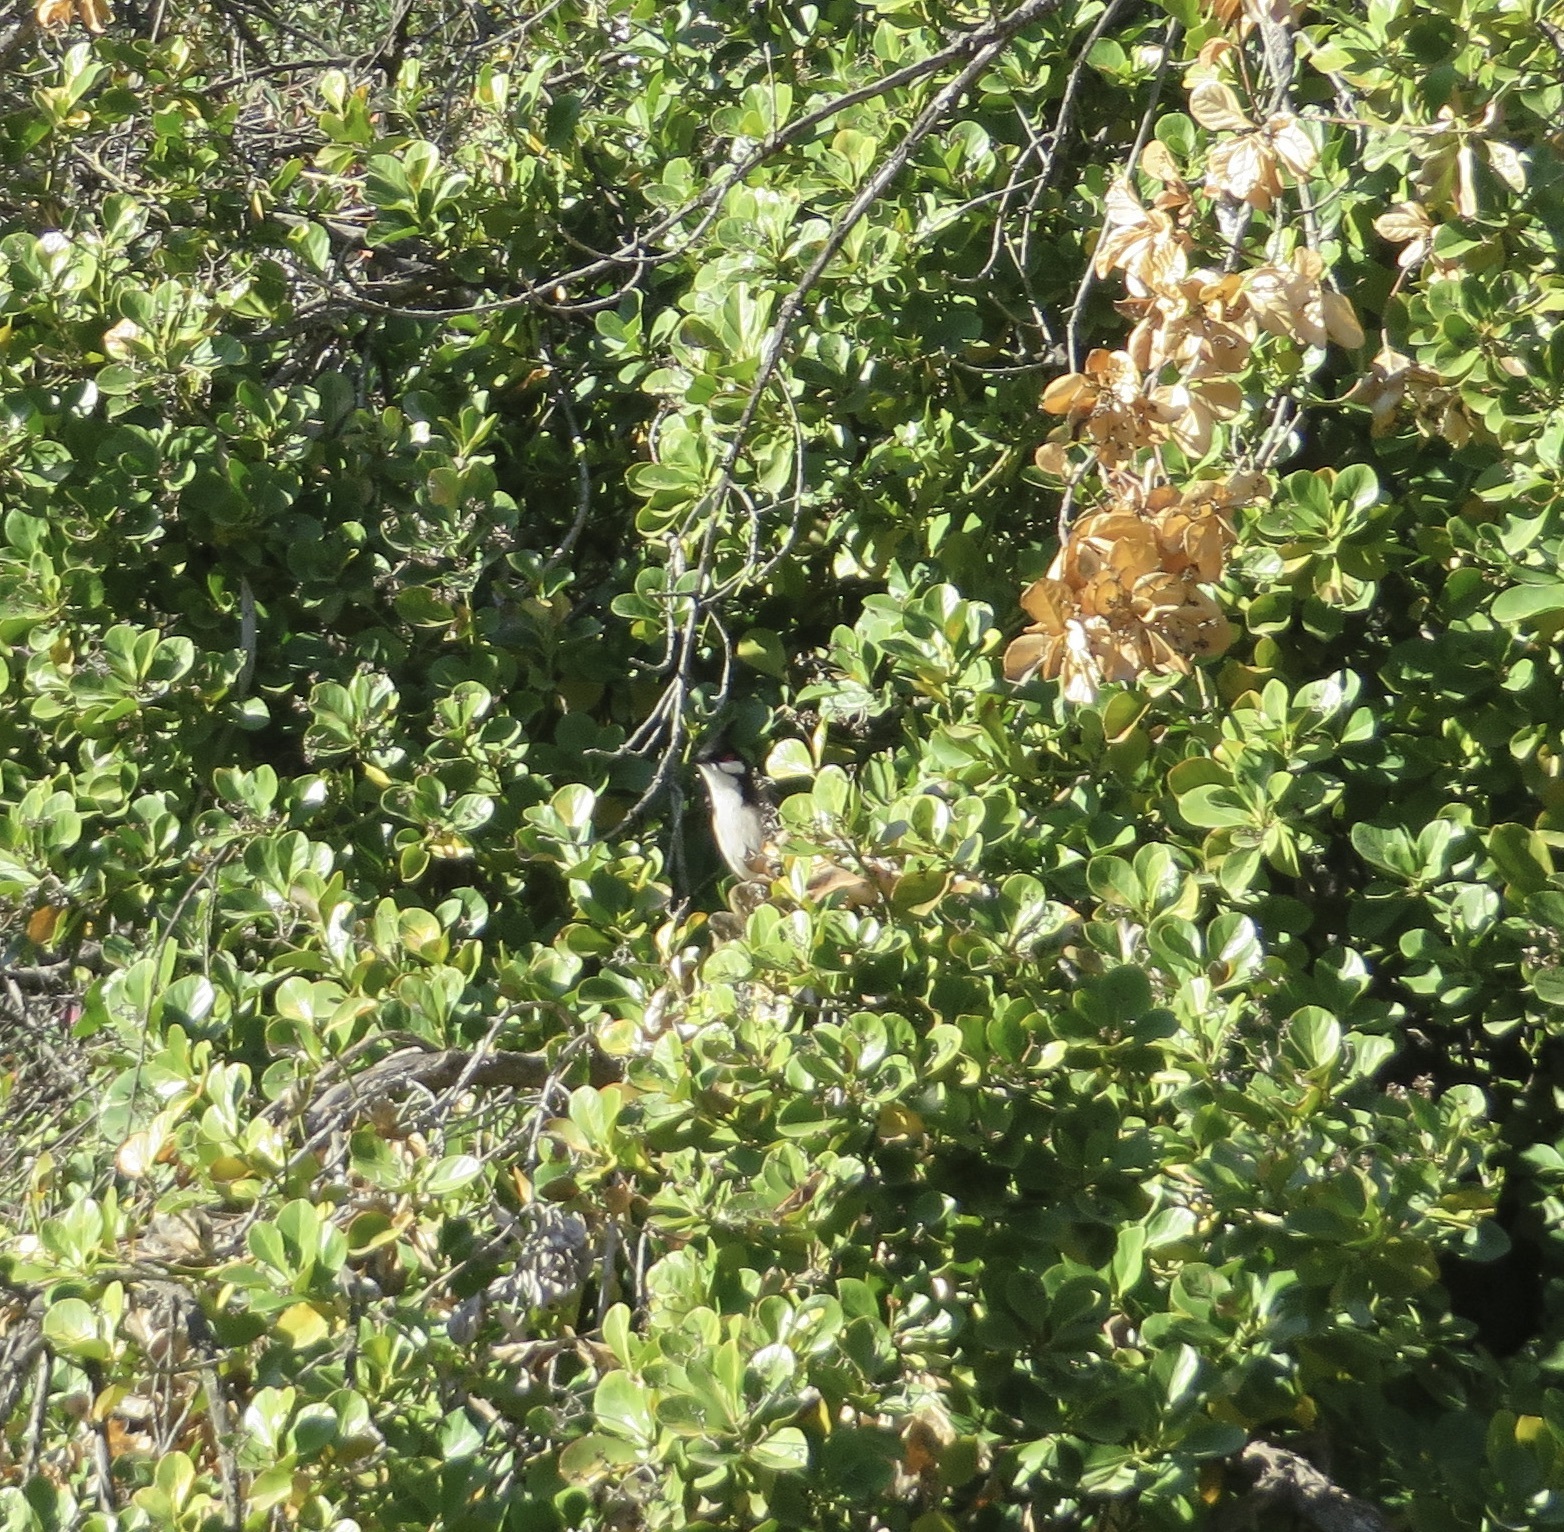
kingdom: Animalia
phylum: Chordata
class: Aves
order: Passeriformes
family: Pycnonotidae
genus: Pycnonotus
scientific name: Pycnonotus jocosus
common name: Red-whiskered bulbul
